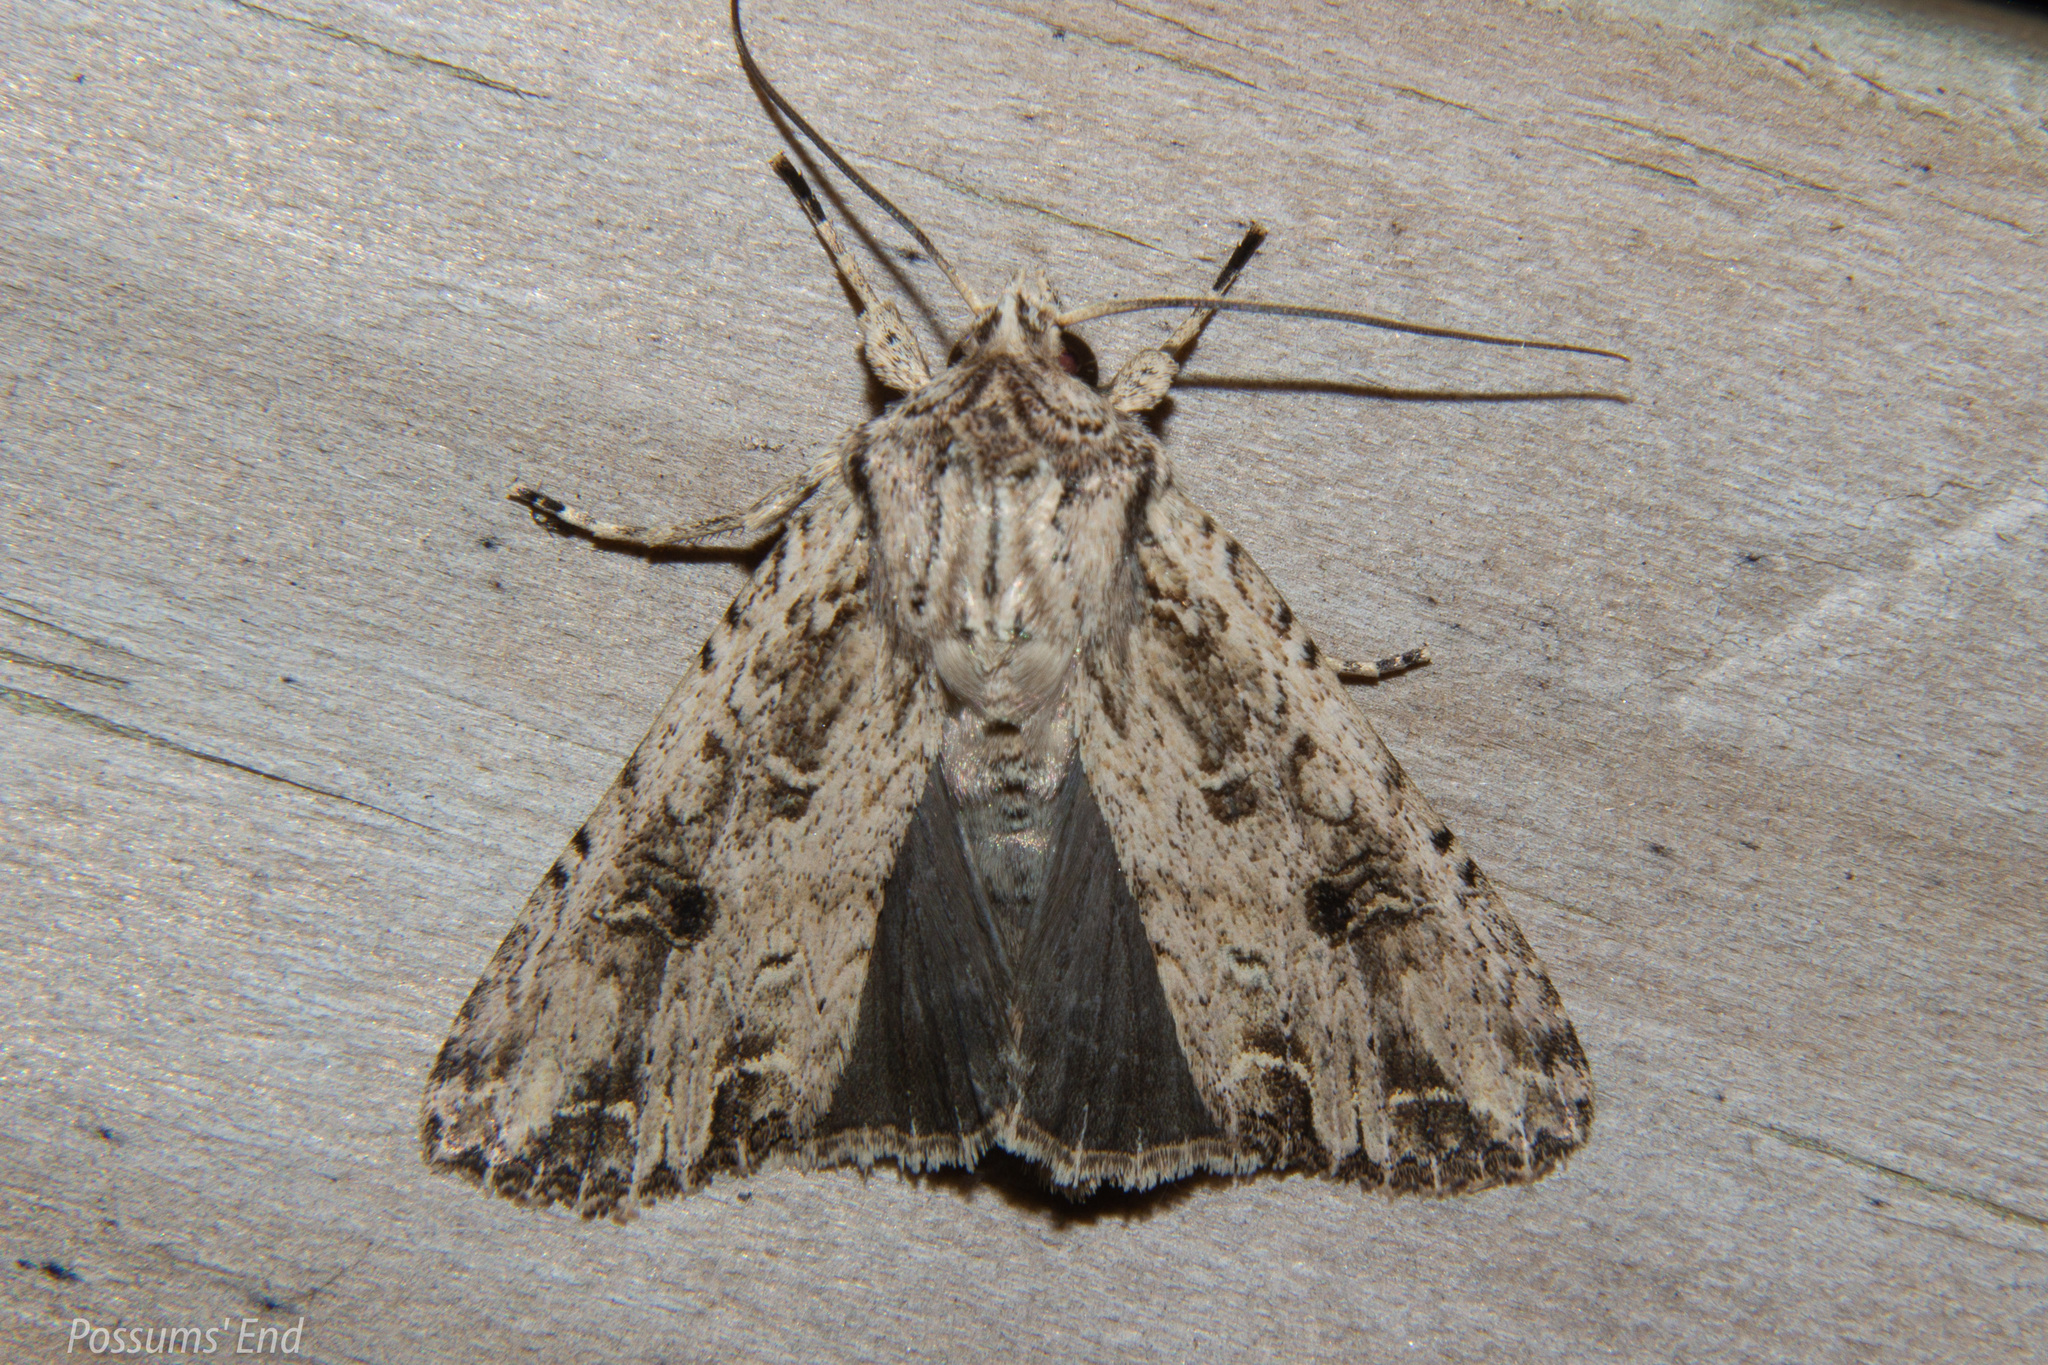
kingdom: Animalia
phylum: Arthropoda
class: Insecta
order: Lepidoptera
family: Noctuidae
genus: Ichneutica
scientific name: Ichneutica lignana
